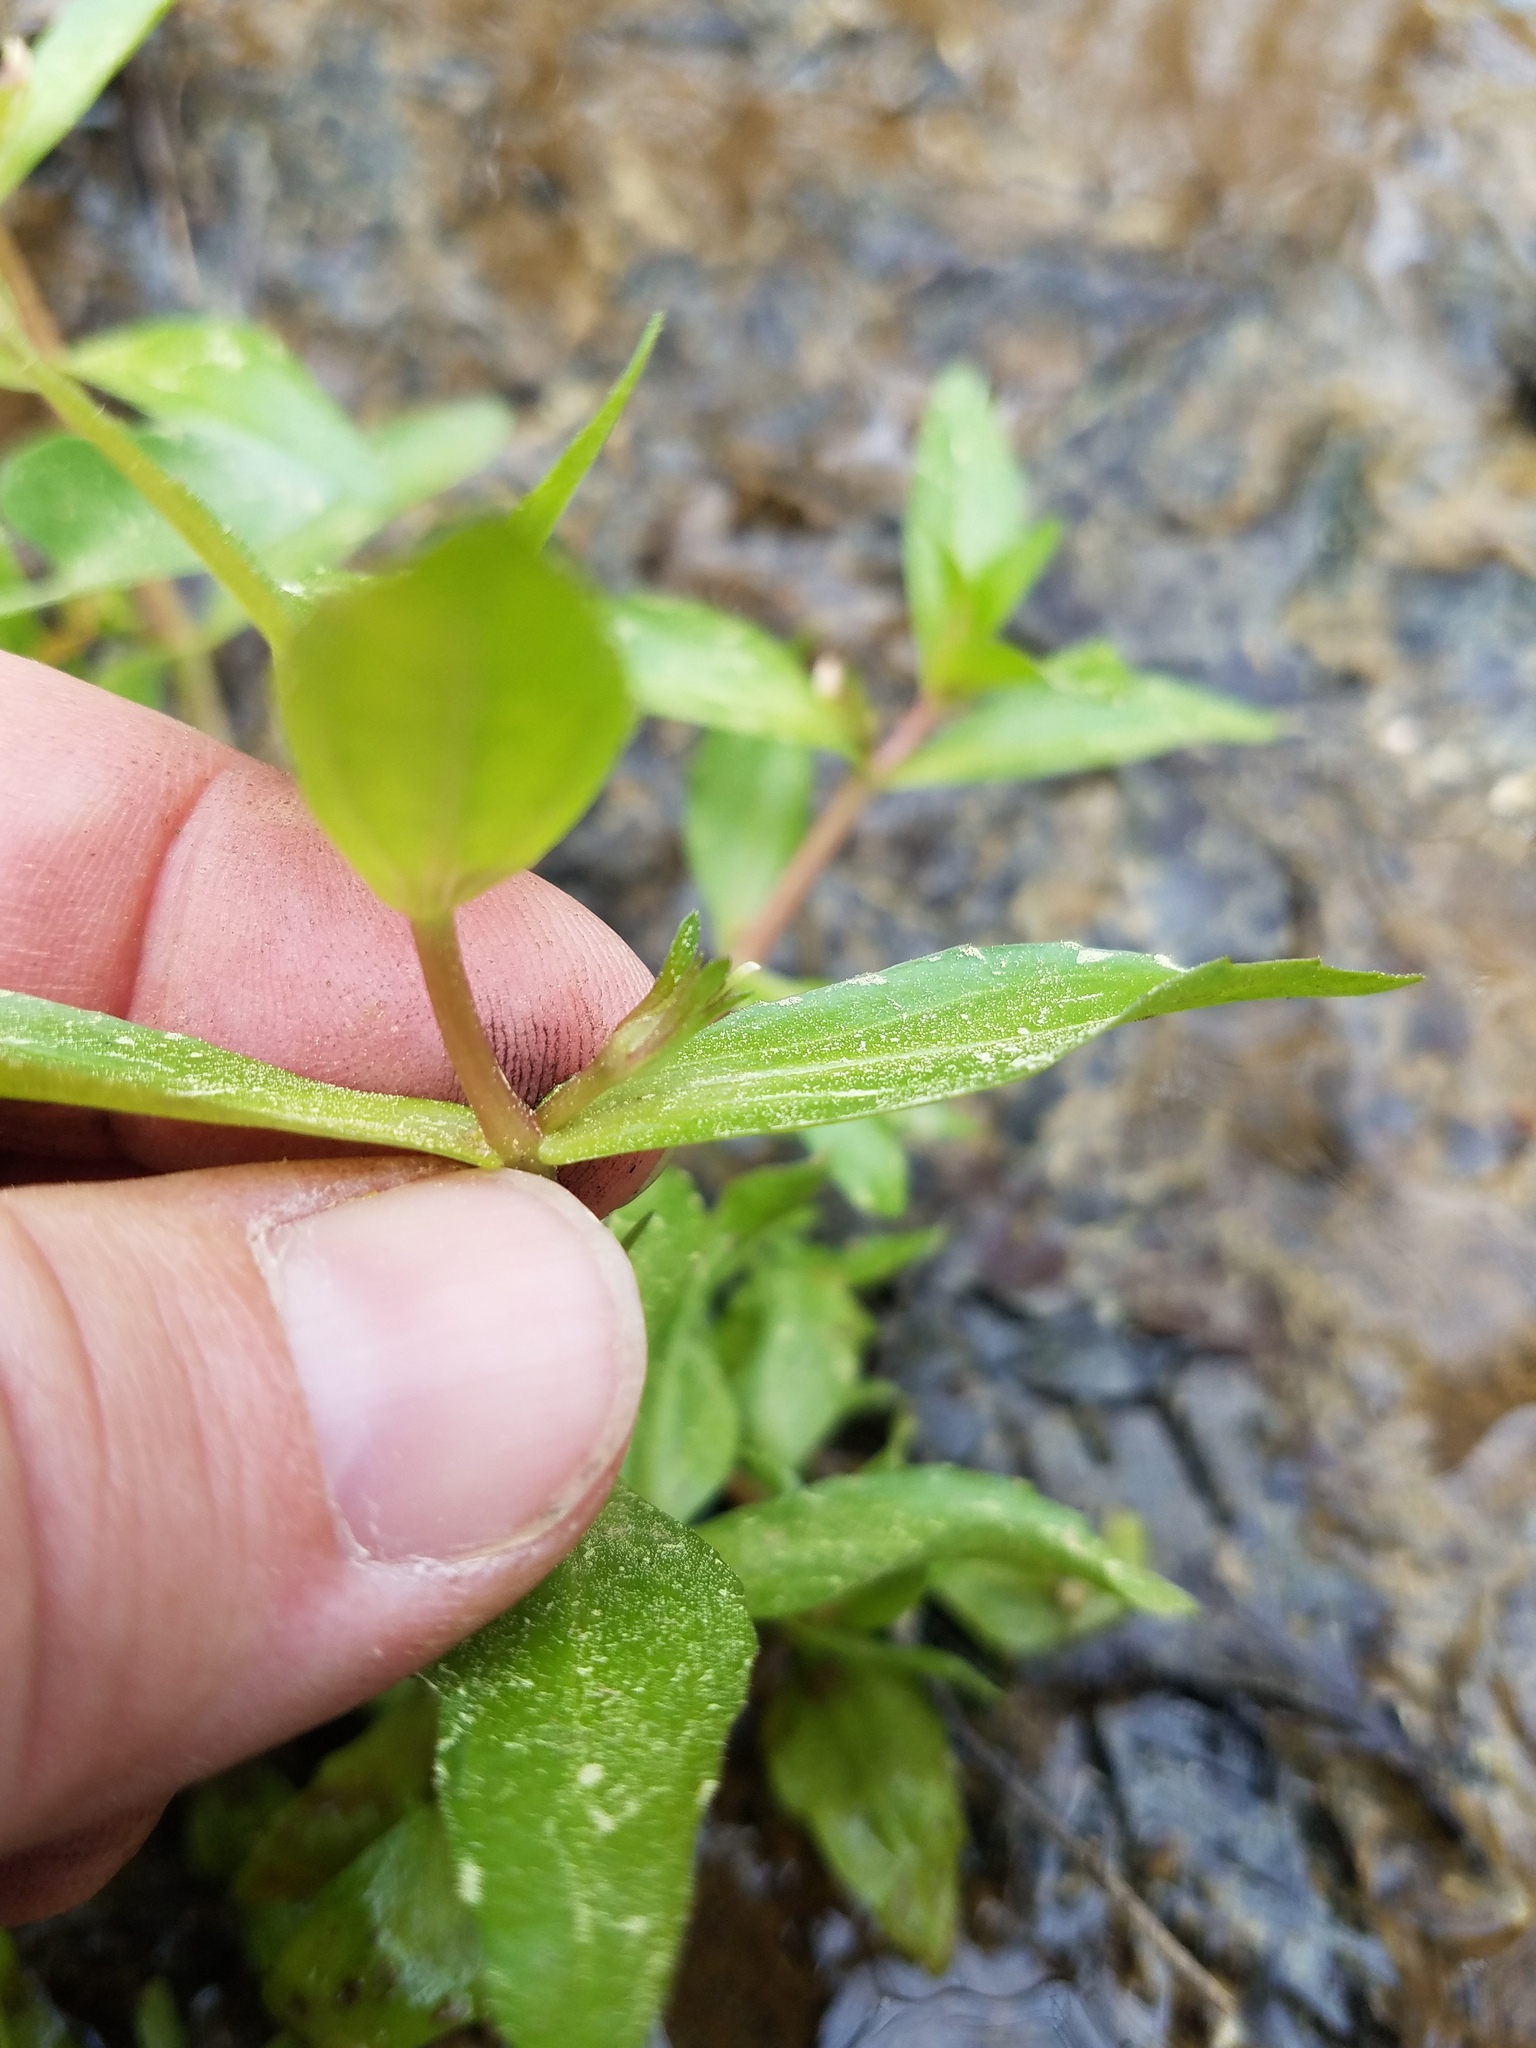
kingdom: Plantae
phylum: Tracheophyta
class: Magnoliopsida
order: Lamiales
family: Plantaginaceae
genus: Gratiola
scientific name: Gratiola virginiana
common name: Roundfruit hedgehyssop
